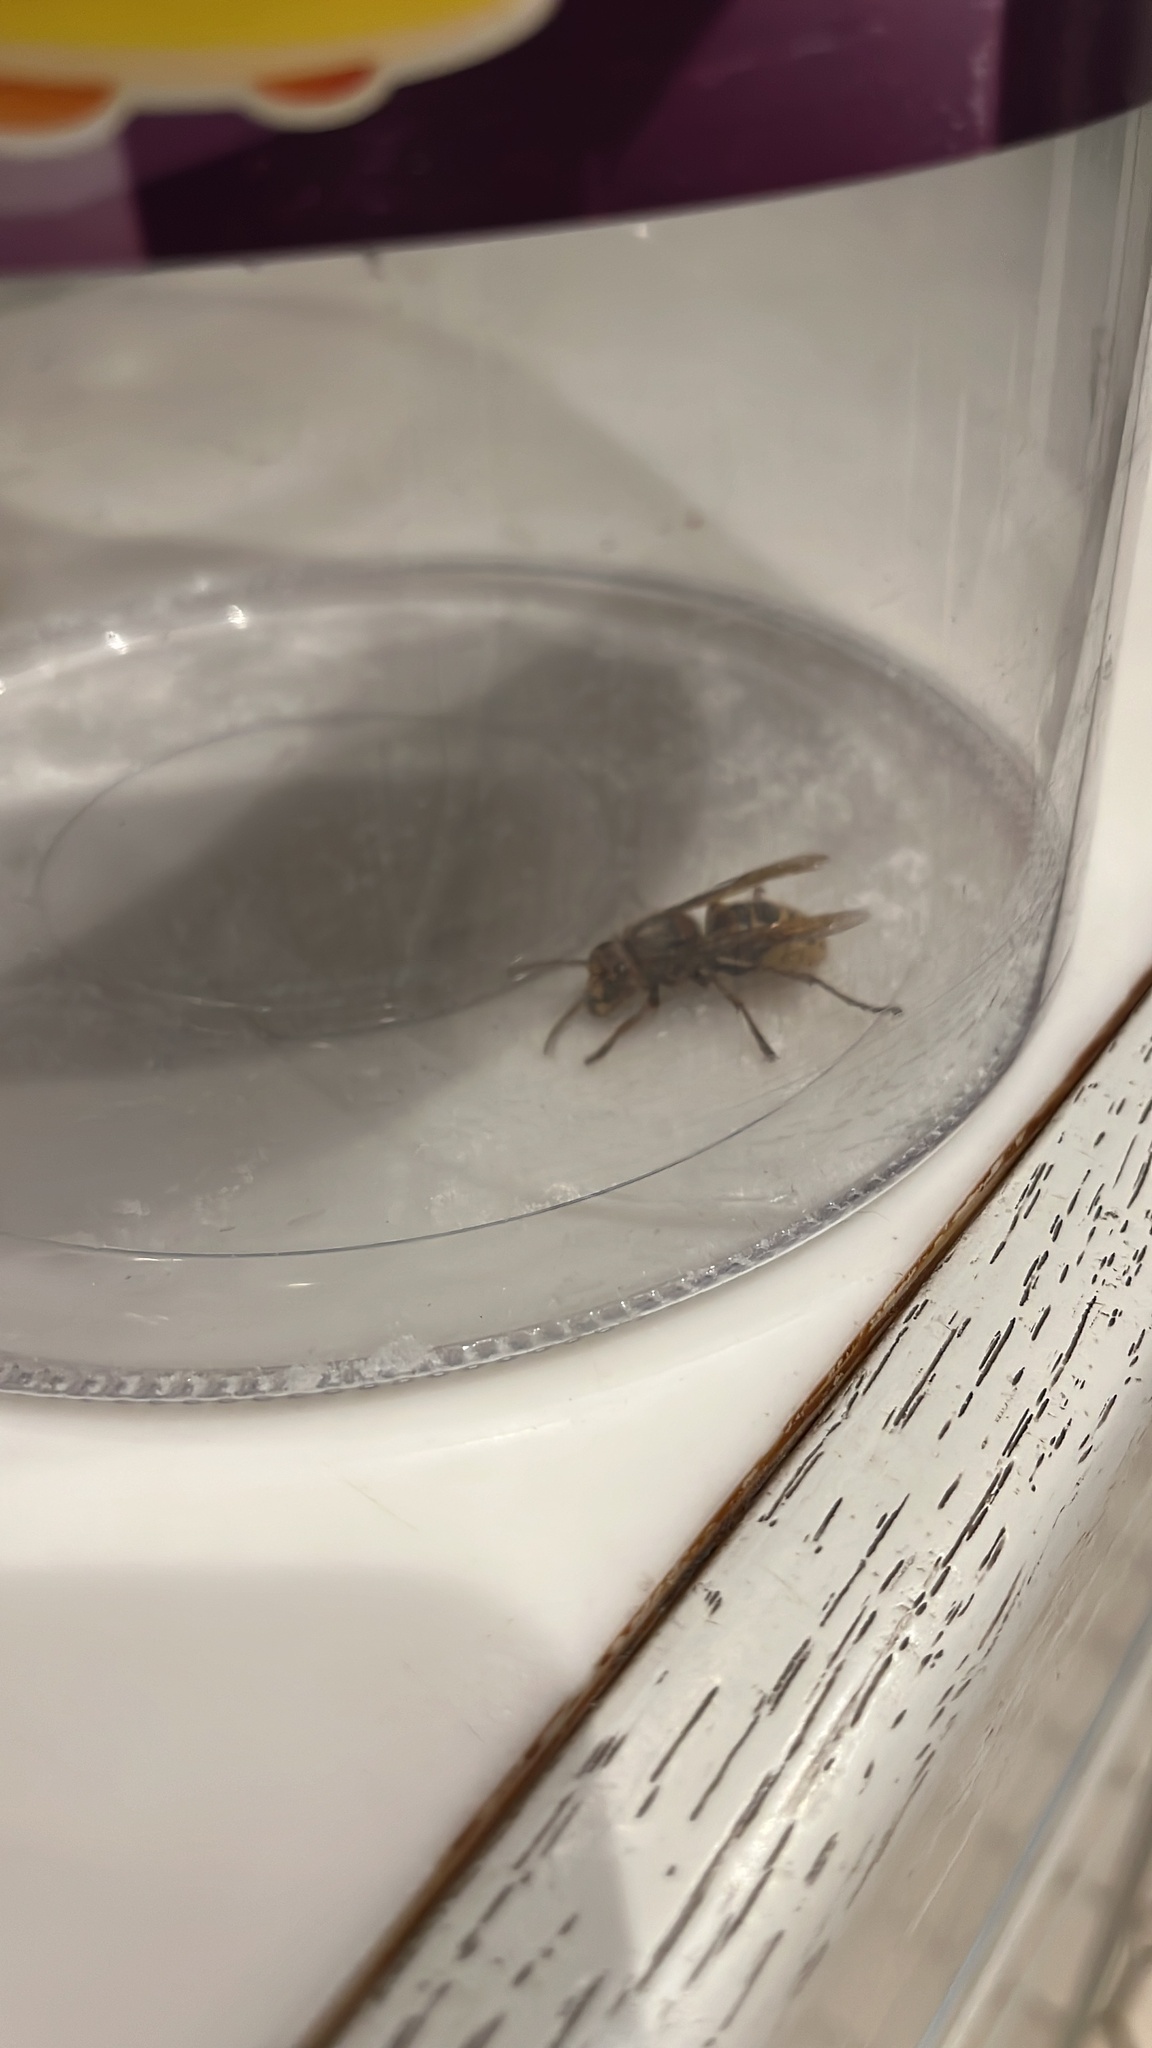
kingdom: Animalia
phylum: Arthropoda
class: Insecta
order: Hymenoptera
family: Vespidae
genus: Vespa
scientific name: Vespa crabro
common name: Hornet
